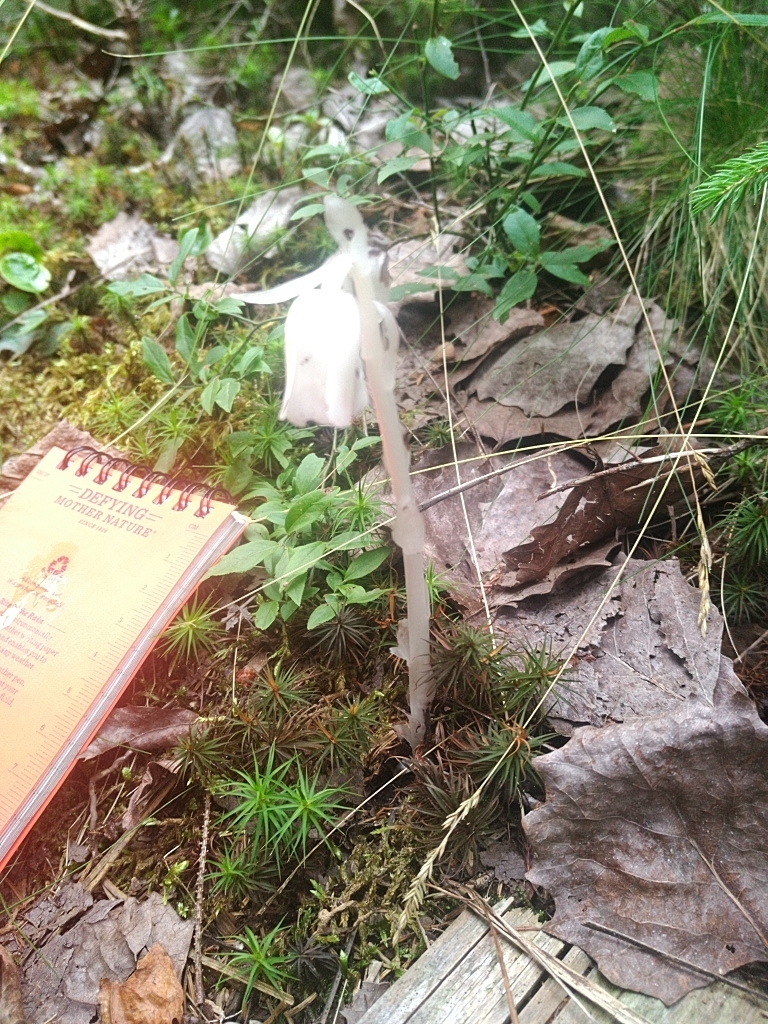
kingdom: Plantae
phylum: Tracheophyta
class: Magnoliopsida
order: Ericales
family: Ericaceae
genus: Monotropa
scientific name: Monotropa uniflora
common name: Convulsion root
